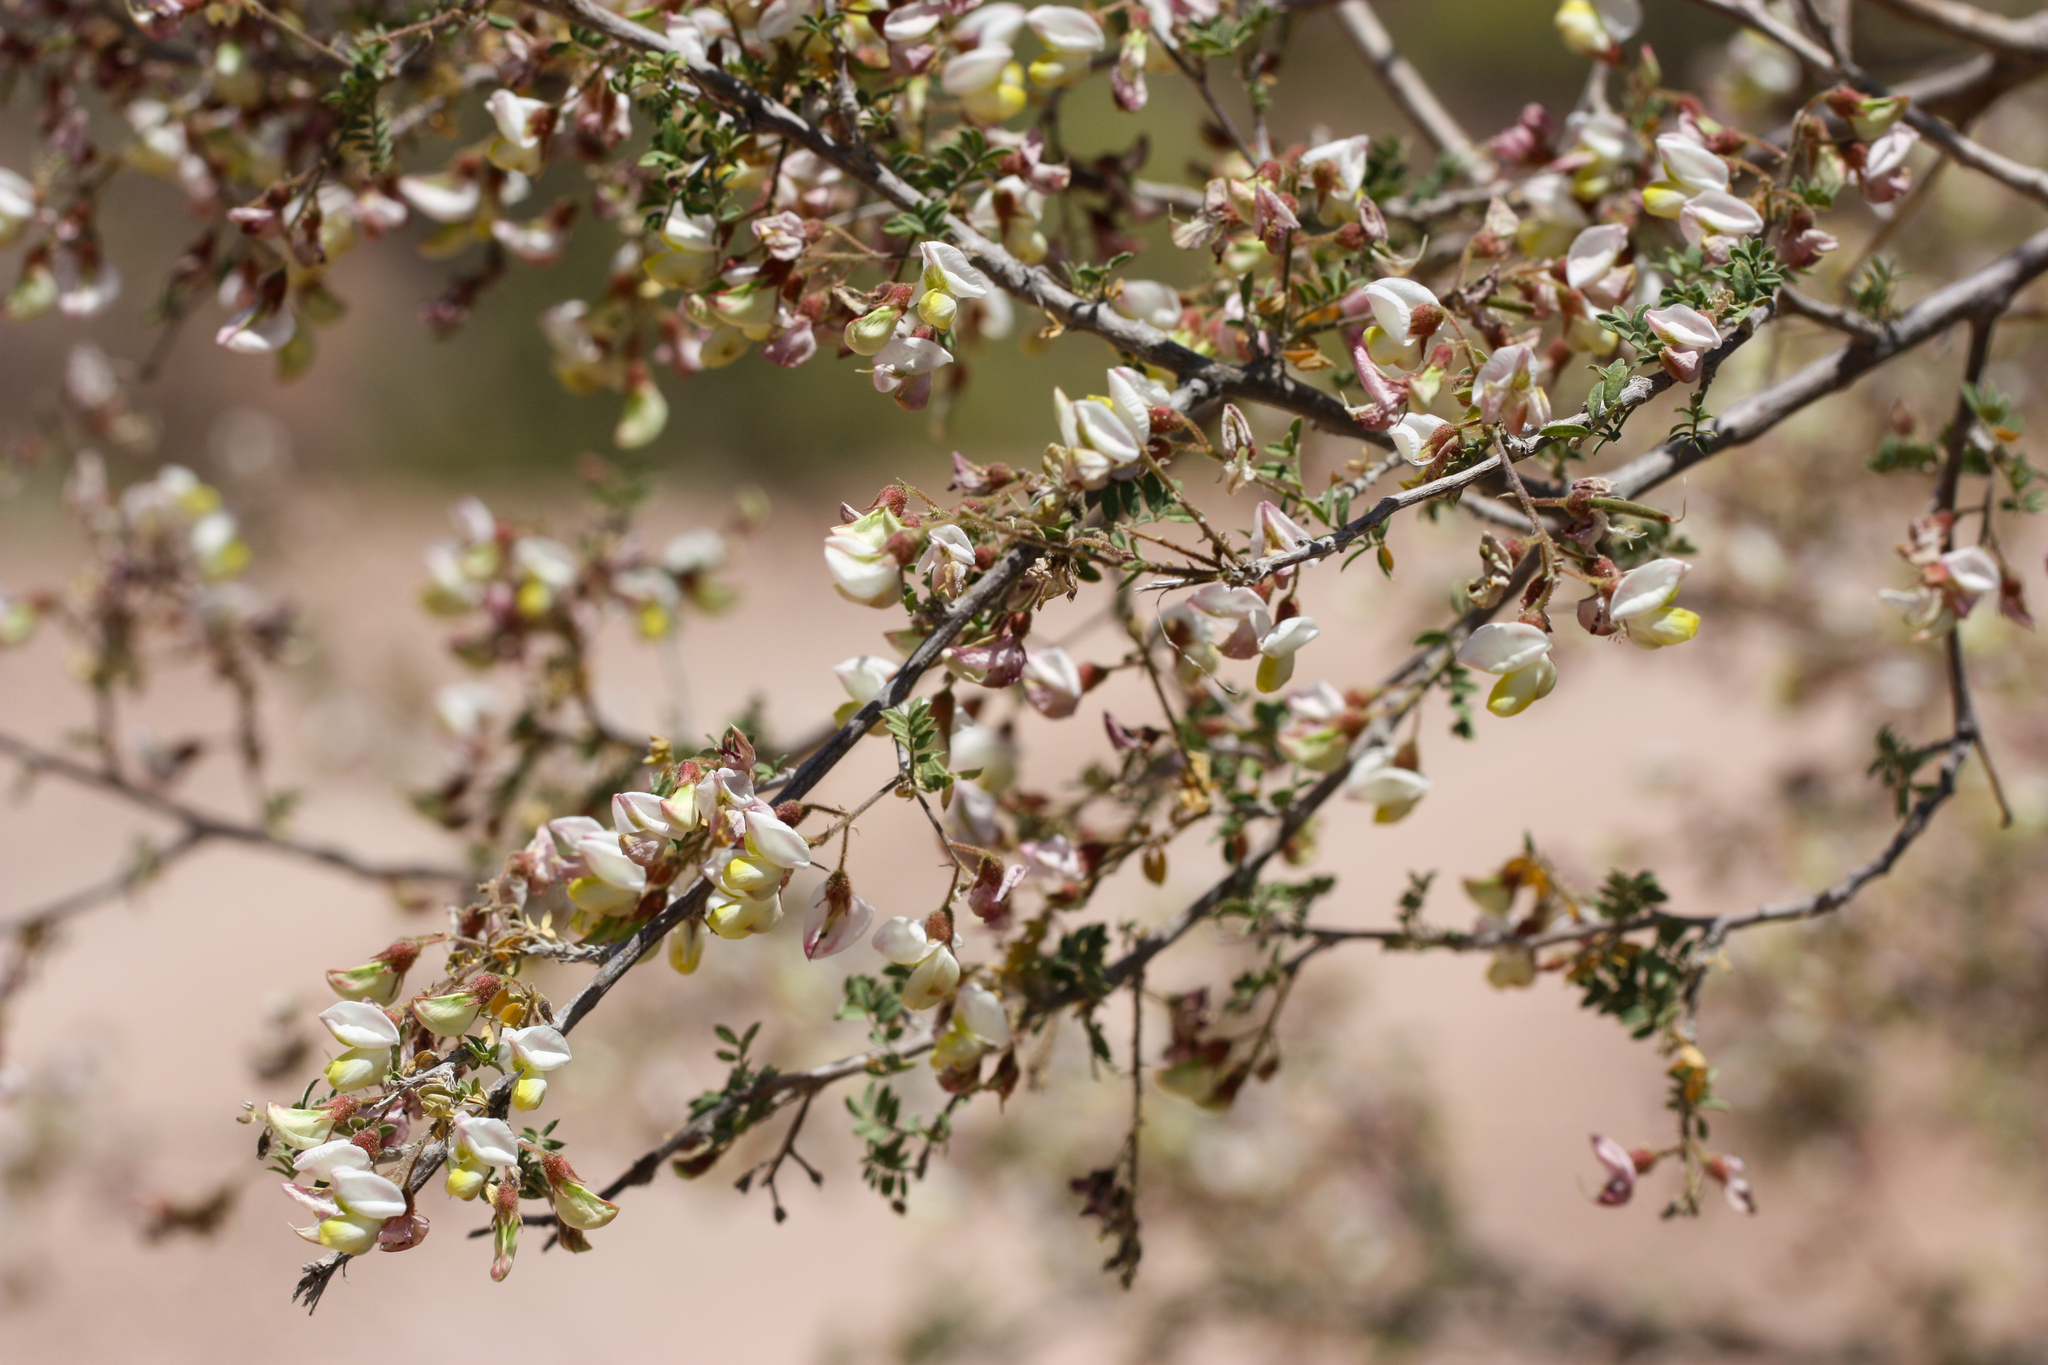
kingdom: Plantae
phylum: Tracheophyta
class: Magnoliopsida
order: Fabales
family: Fabaceae
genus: Coursetia
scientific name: Coursetia glandulosa
